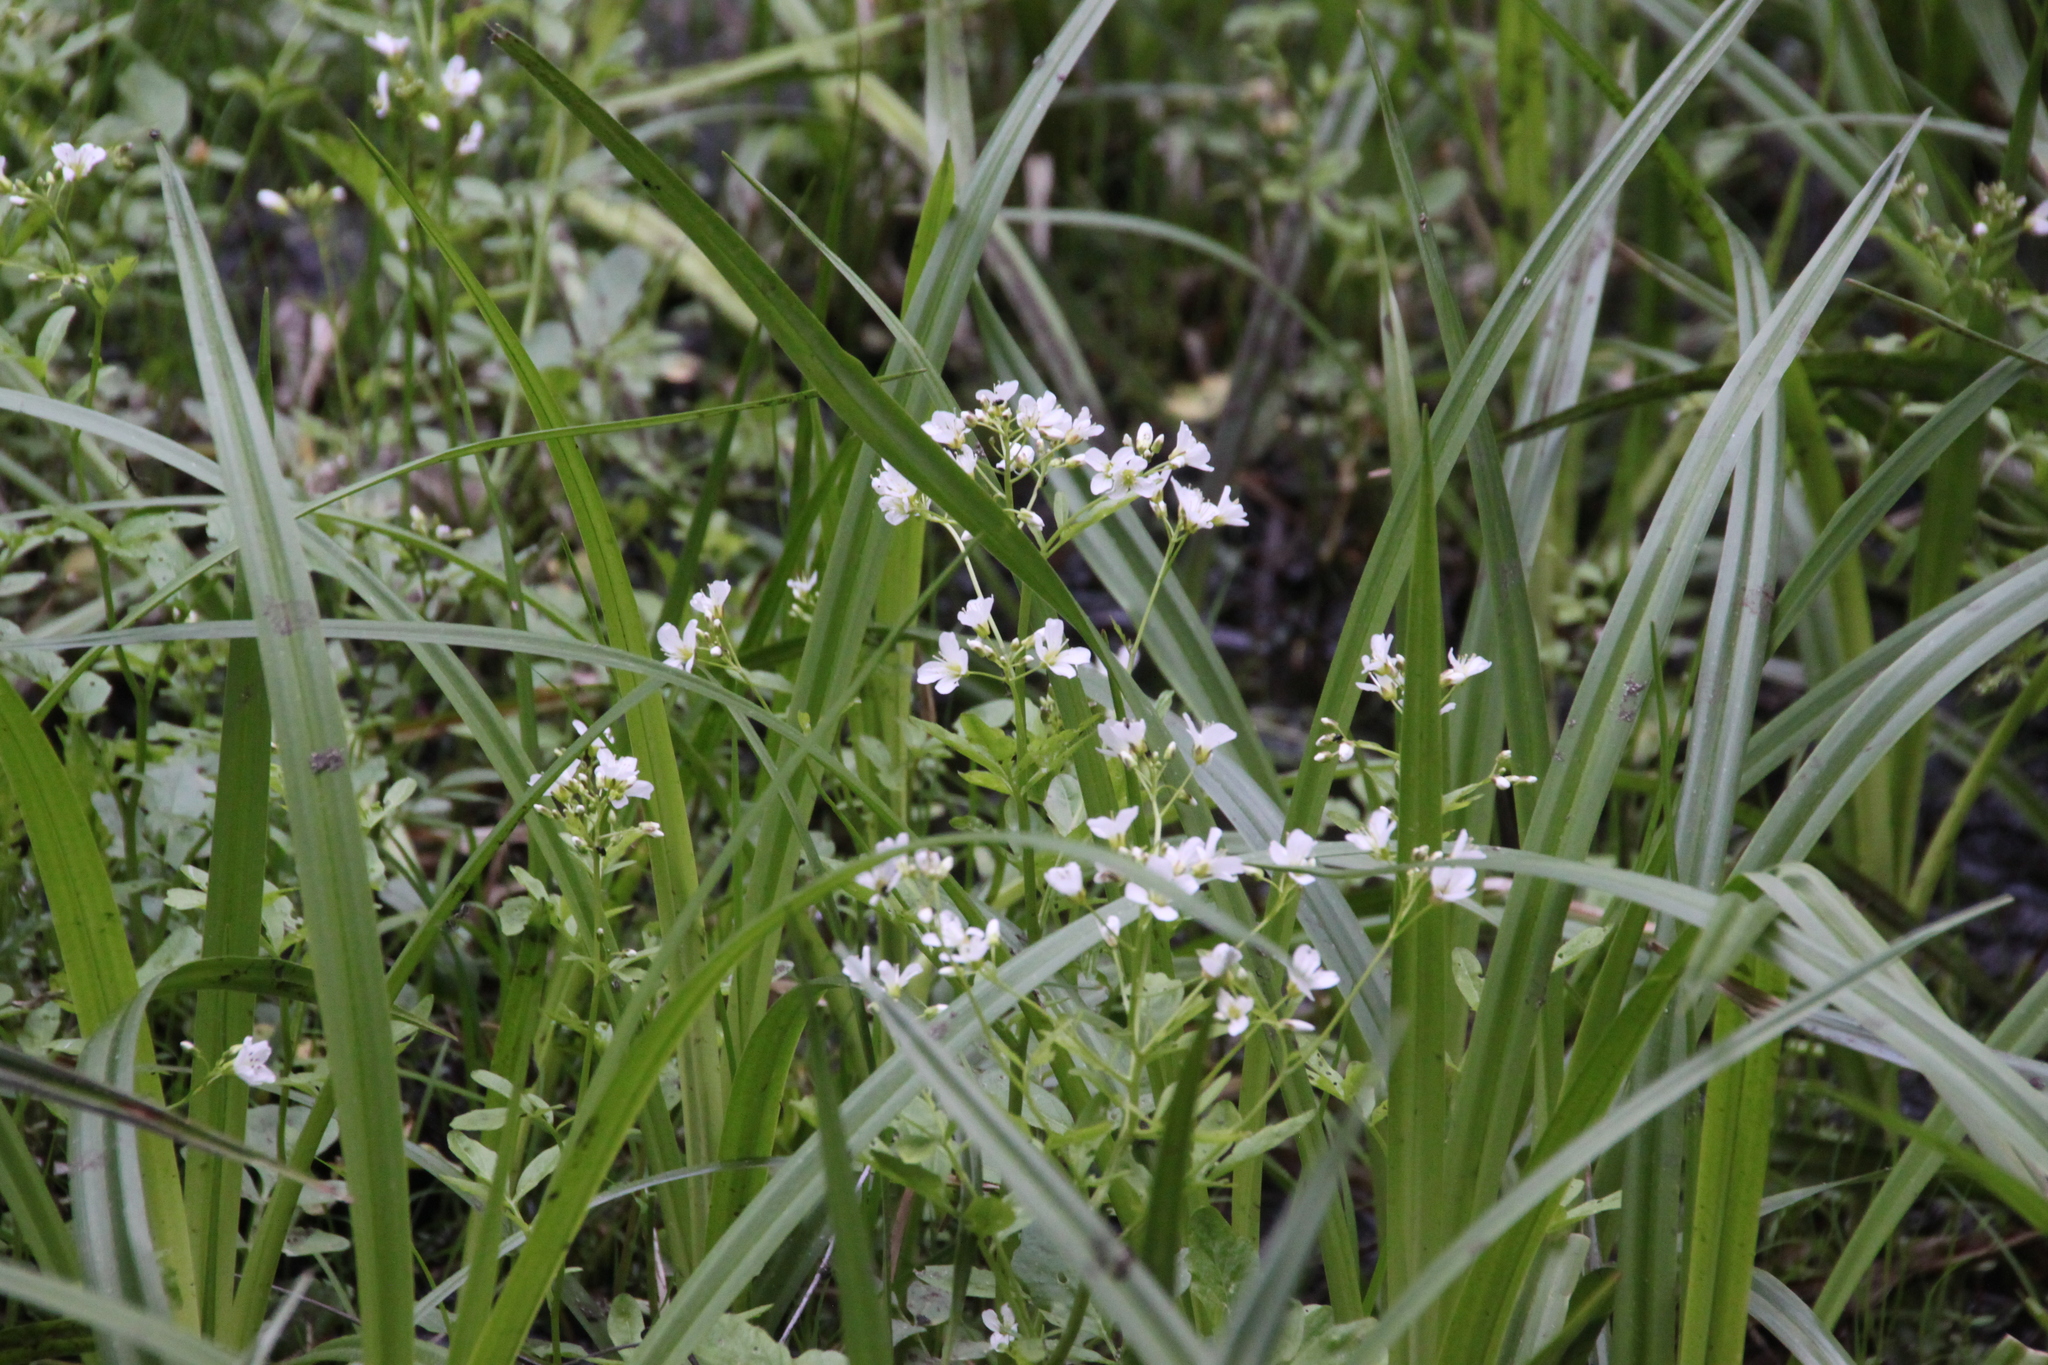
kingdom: Plantae
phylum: Tracheophyta
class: Magnoliopsida
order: Brassicales
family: Brassicaceae
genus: Cardamine
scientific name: Cardamine amara
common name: Large bitter-cress
